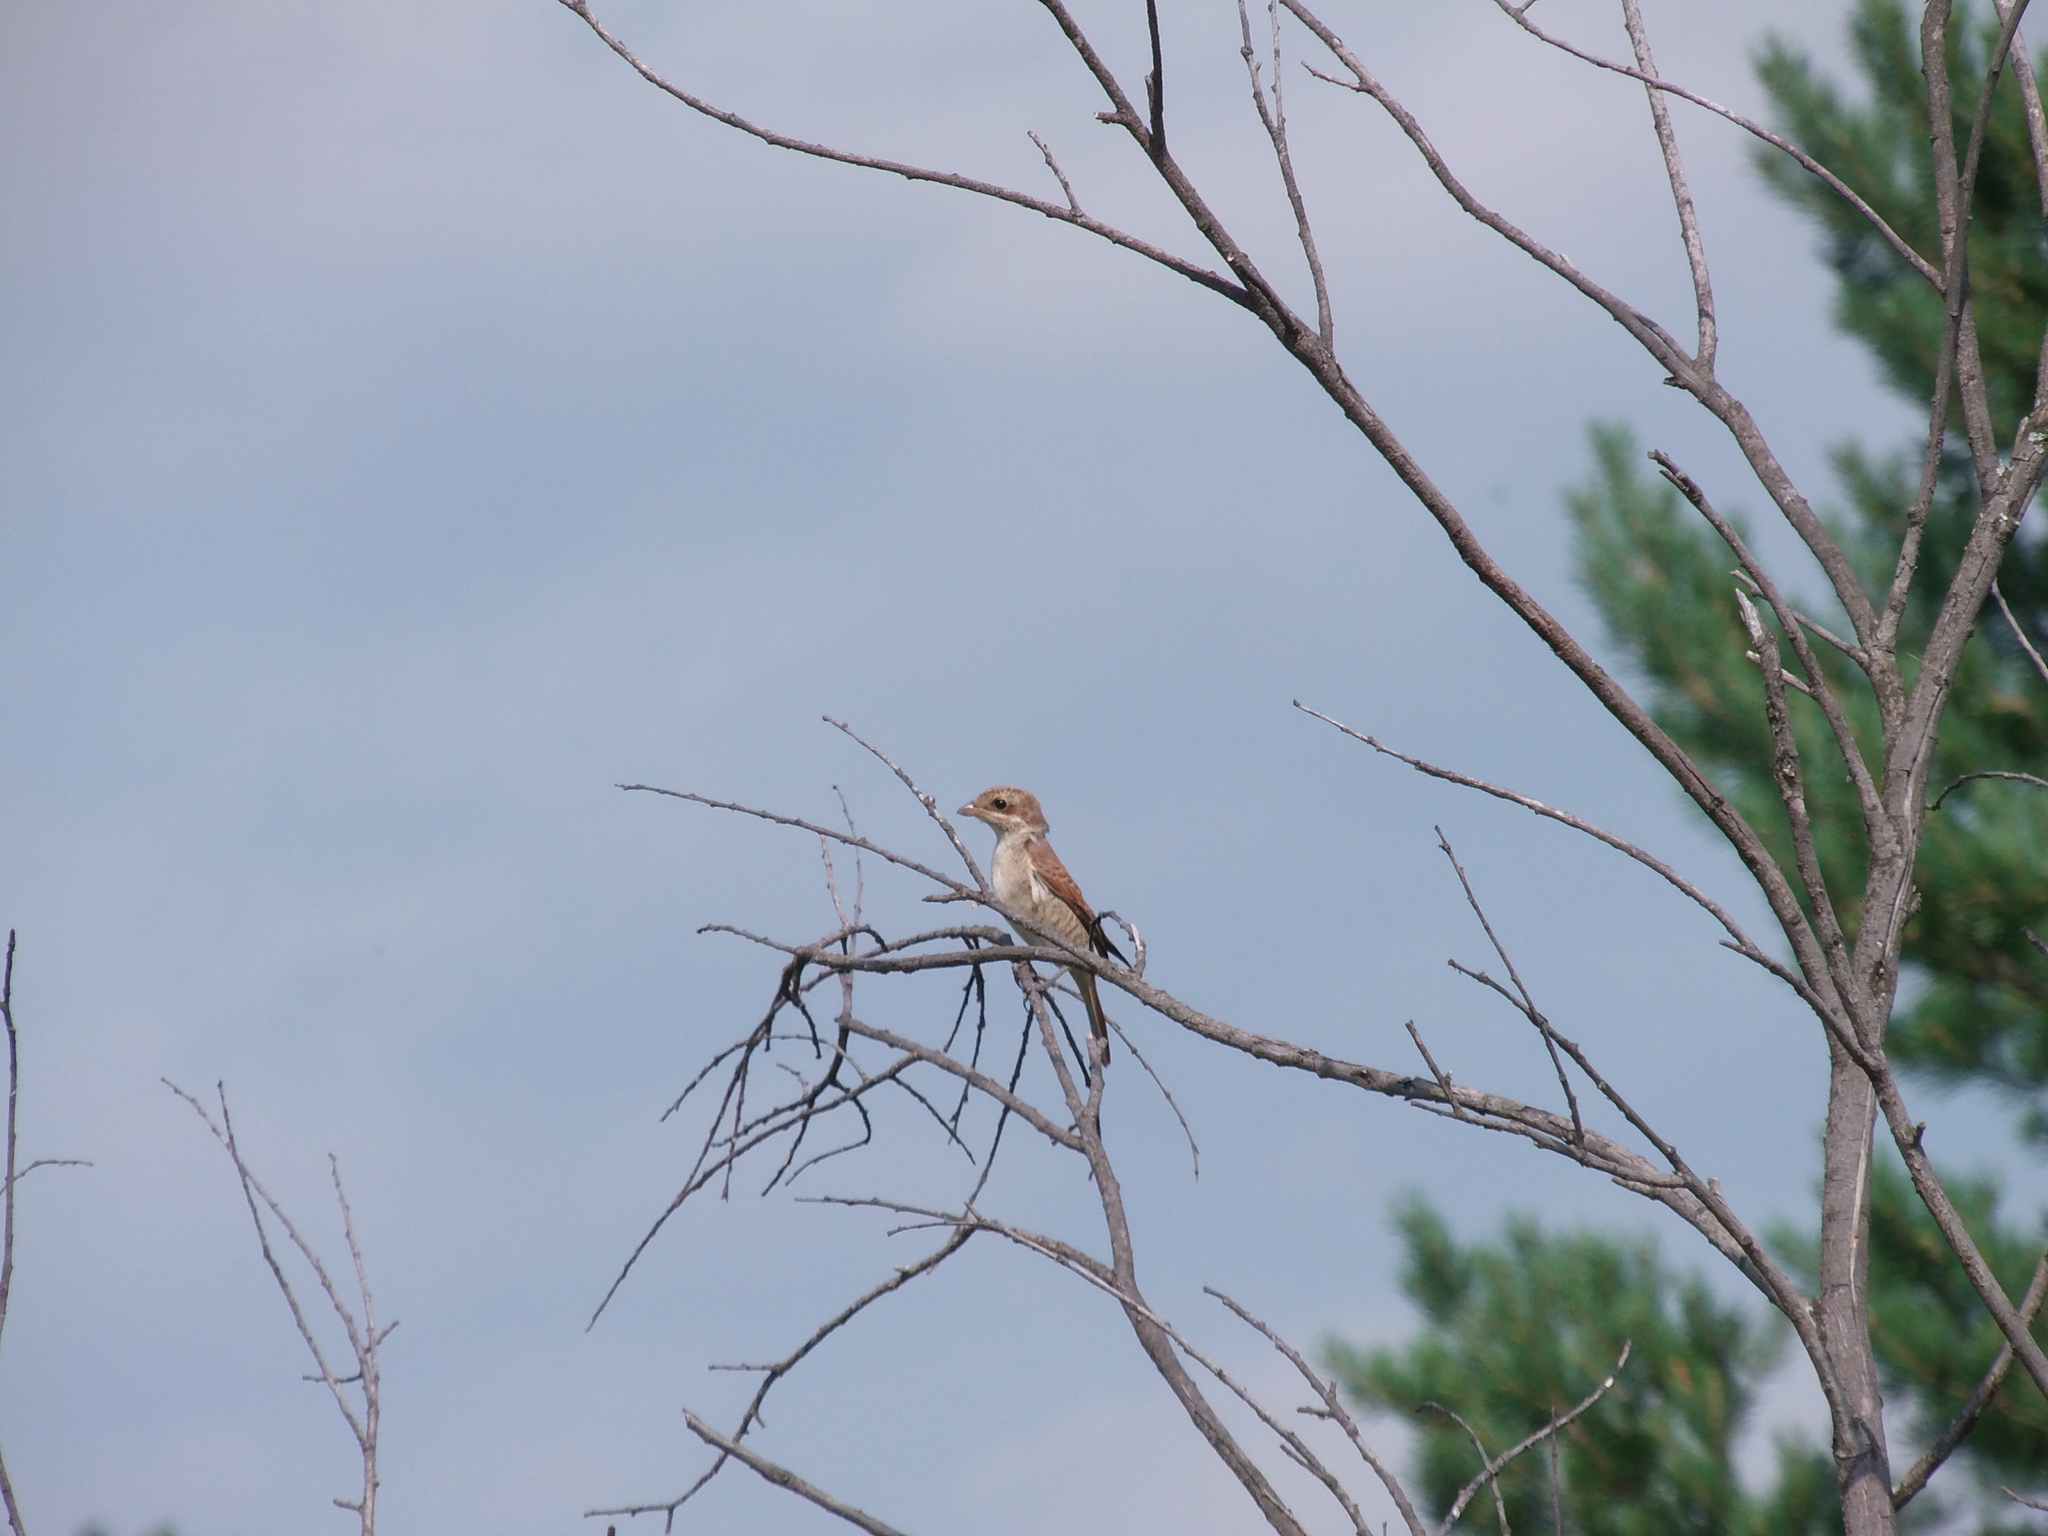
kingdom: Animalia
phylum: Chordata
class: Aves
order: Passeriformes
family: Laniidae
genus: Lanius
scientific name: Lanius collurio
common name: Red-backed shrike
